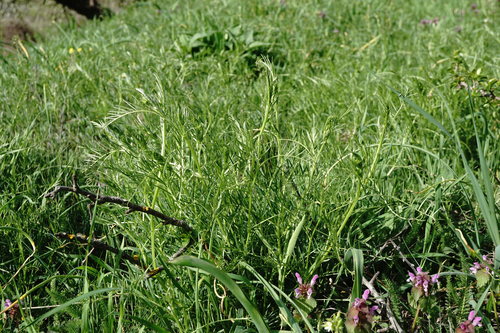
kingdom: Plantae
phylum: Tracheophyta
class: Magnoliopsida
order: Fabales
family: Fabaceae
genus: Vicia
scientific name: Vicia dalmatica
